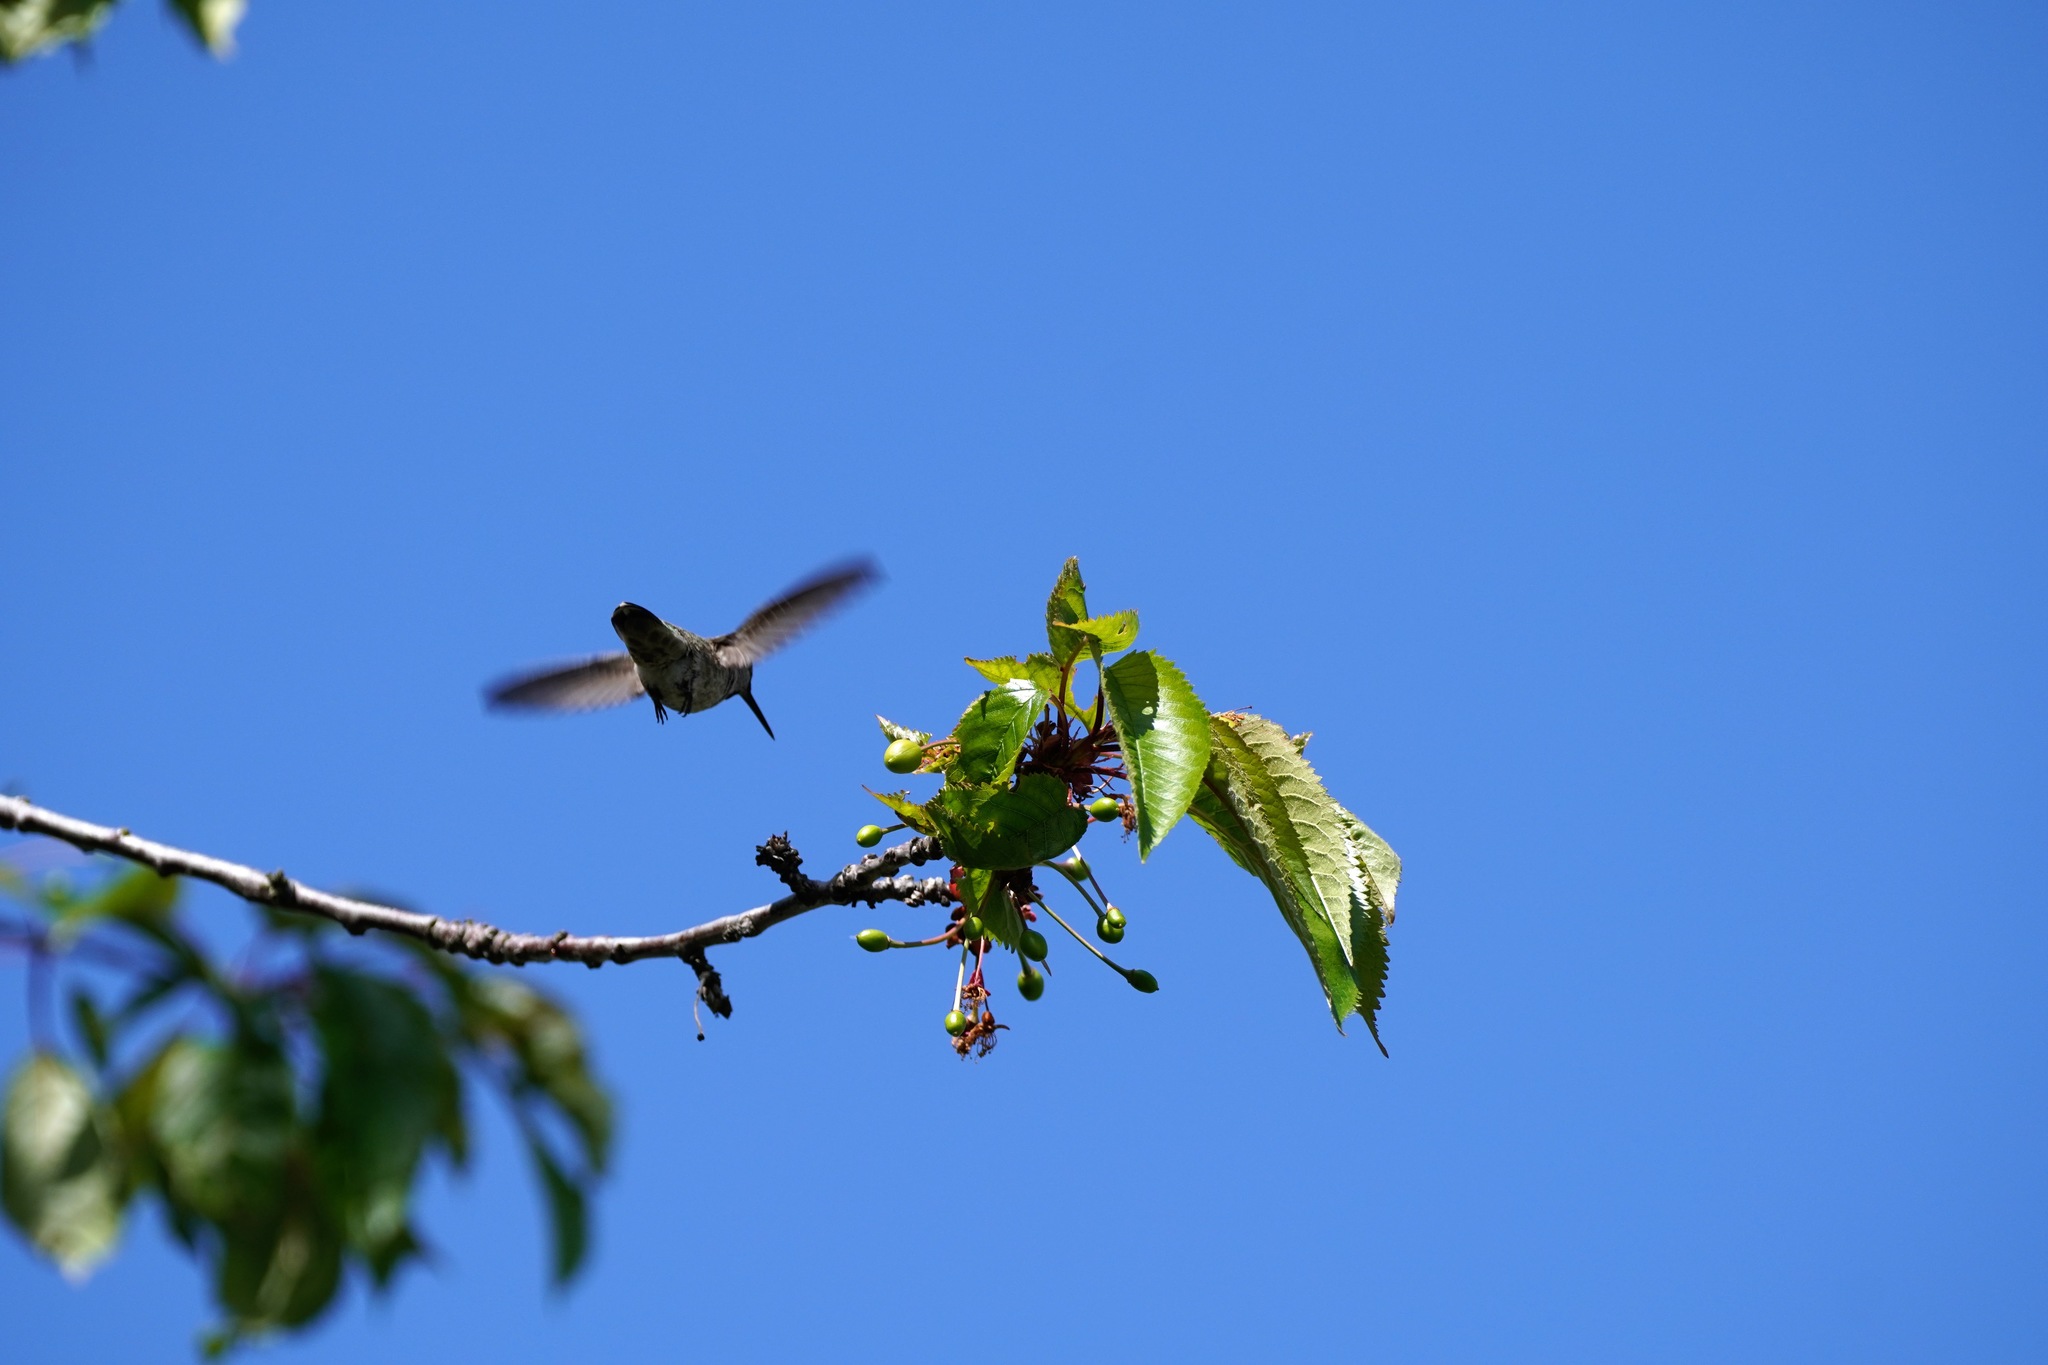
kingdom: Animalia
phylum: Chordata
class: Aves
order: Apodiformes
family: Trochilidae
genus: Calypte
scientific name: Calypte anna
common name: Anna's hummingbird
